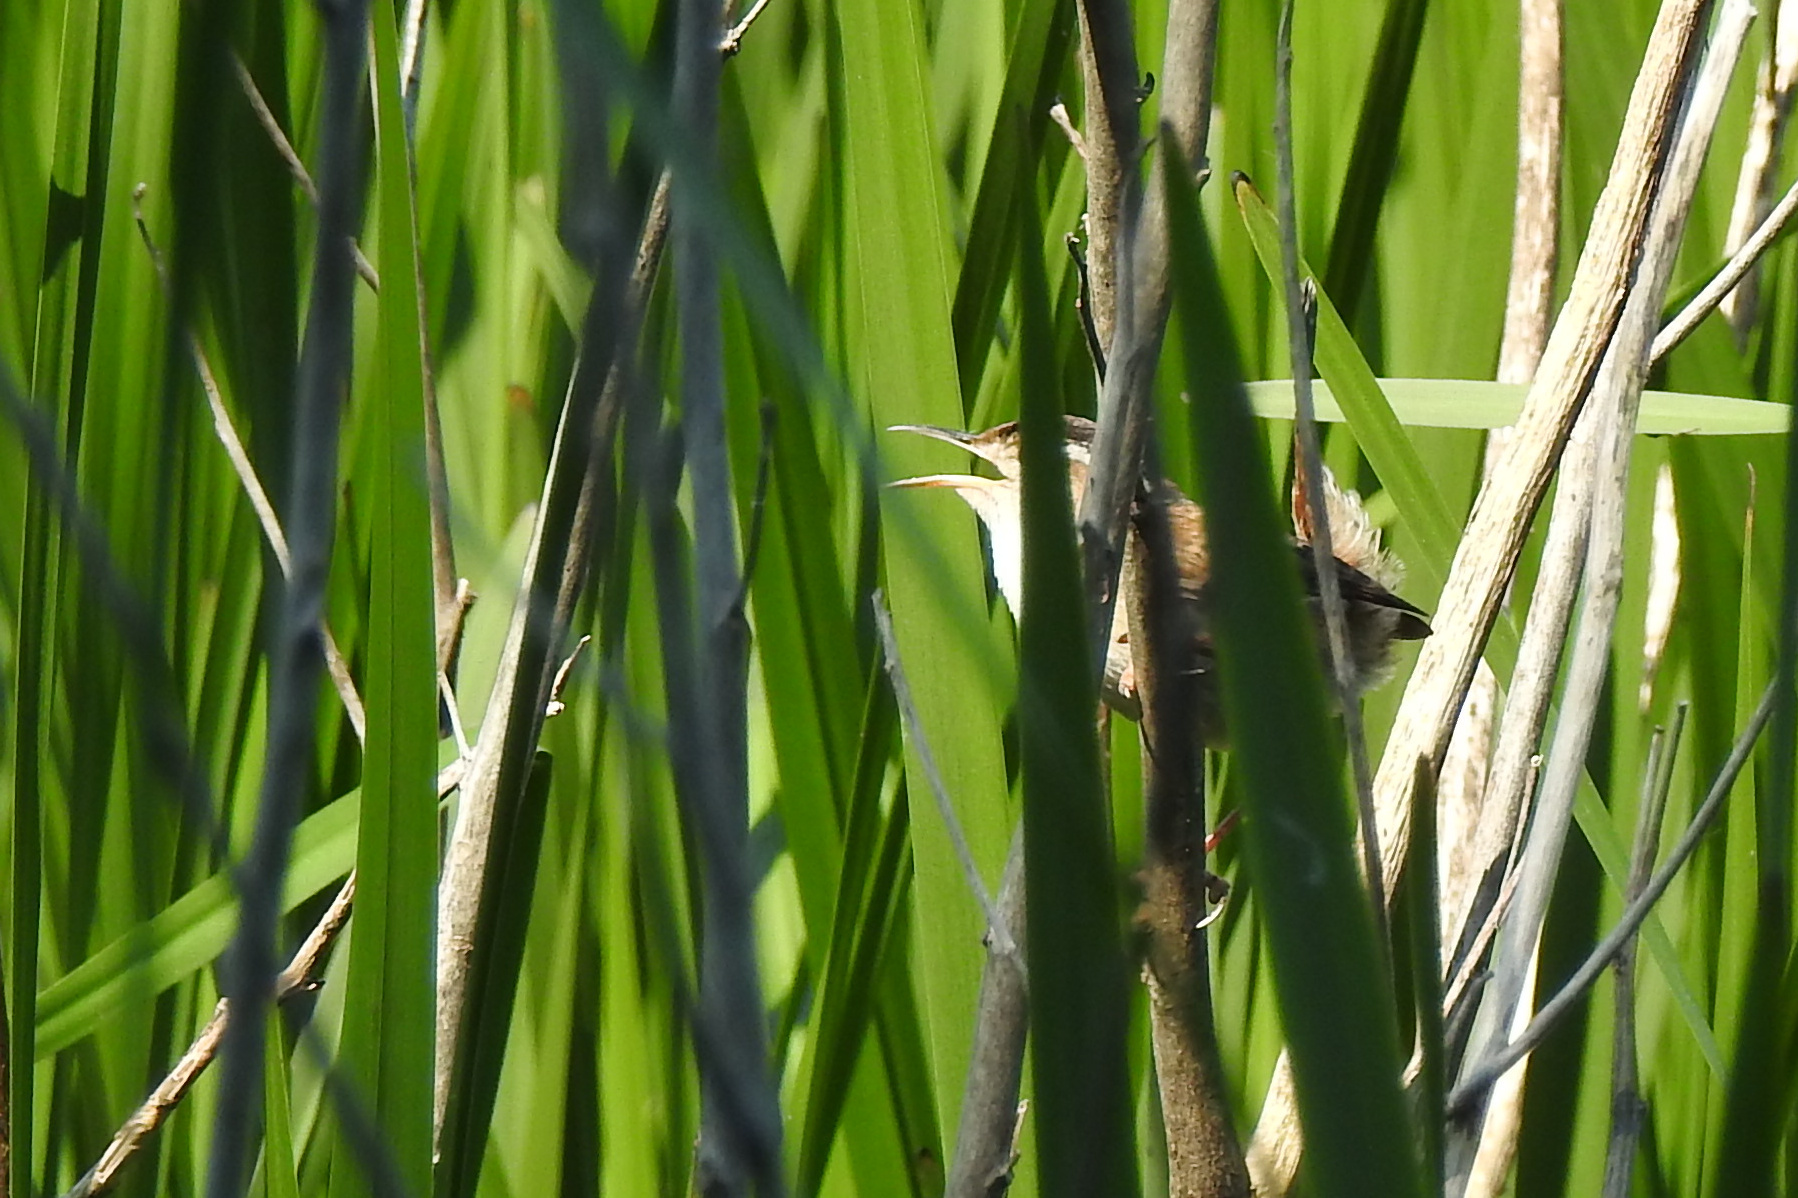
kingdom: Animalia
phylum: Chordata
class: Aves
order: Passeriformes
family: Troglodytidae
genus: Cistothorus
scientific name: Cistothorus palustris
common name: Marsh wren
